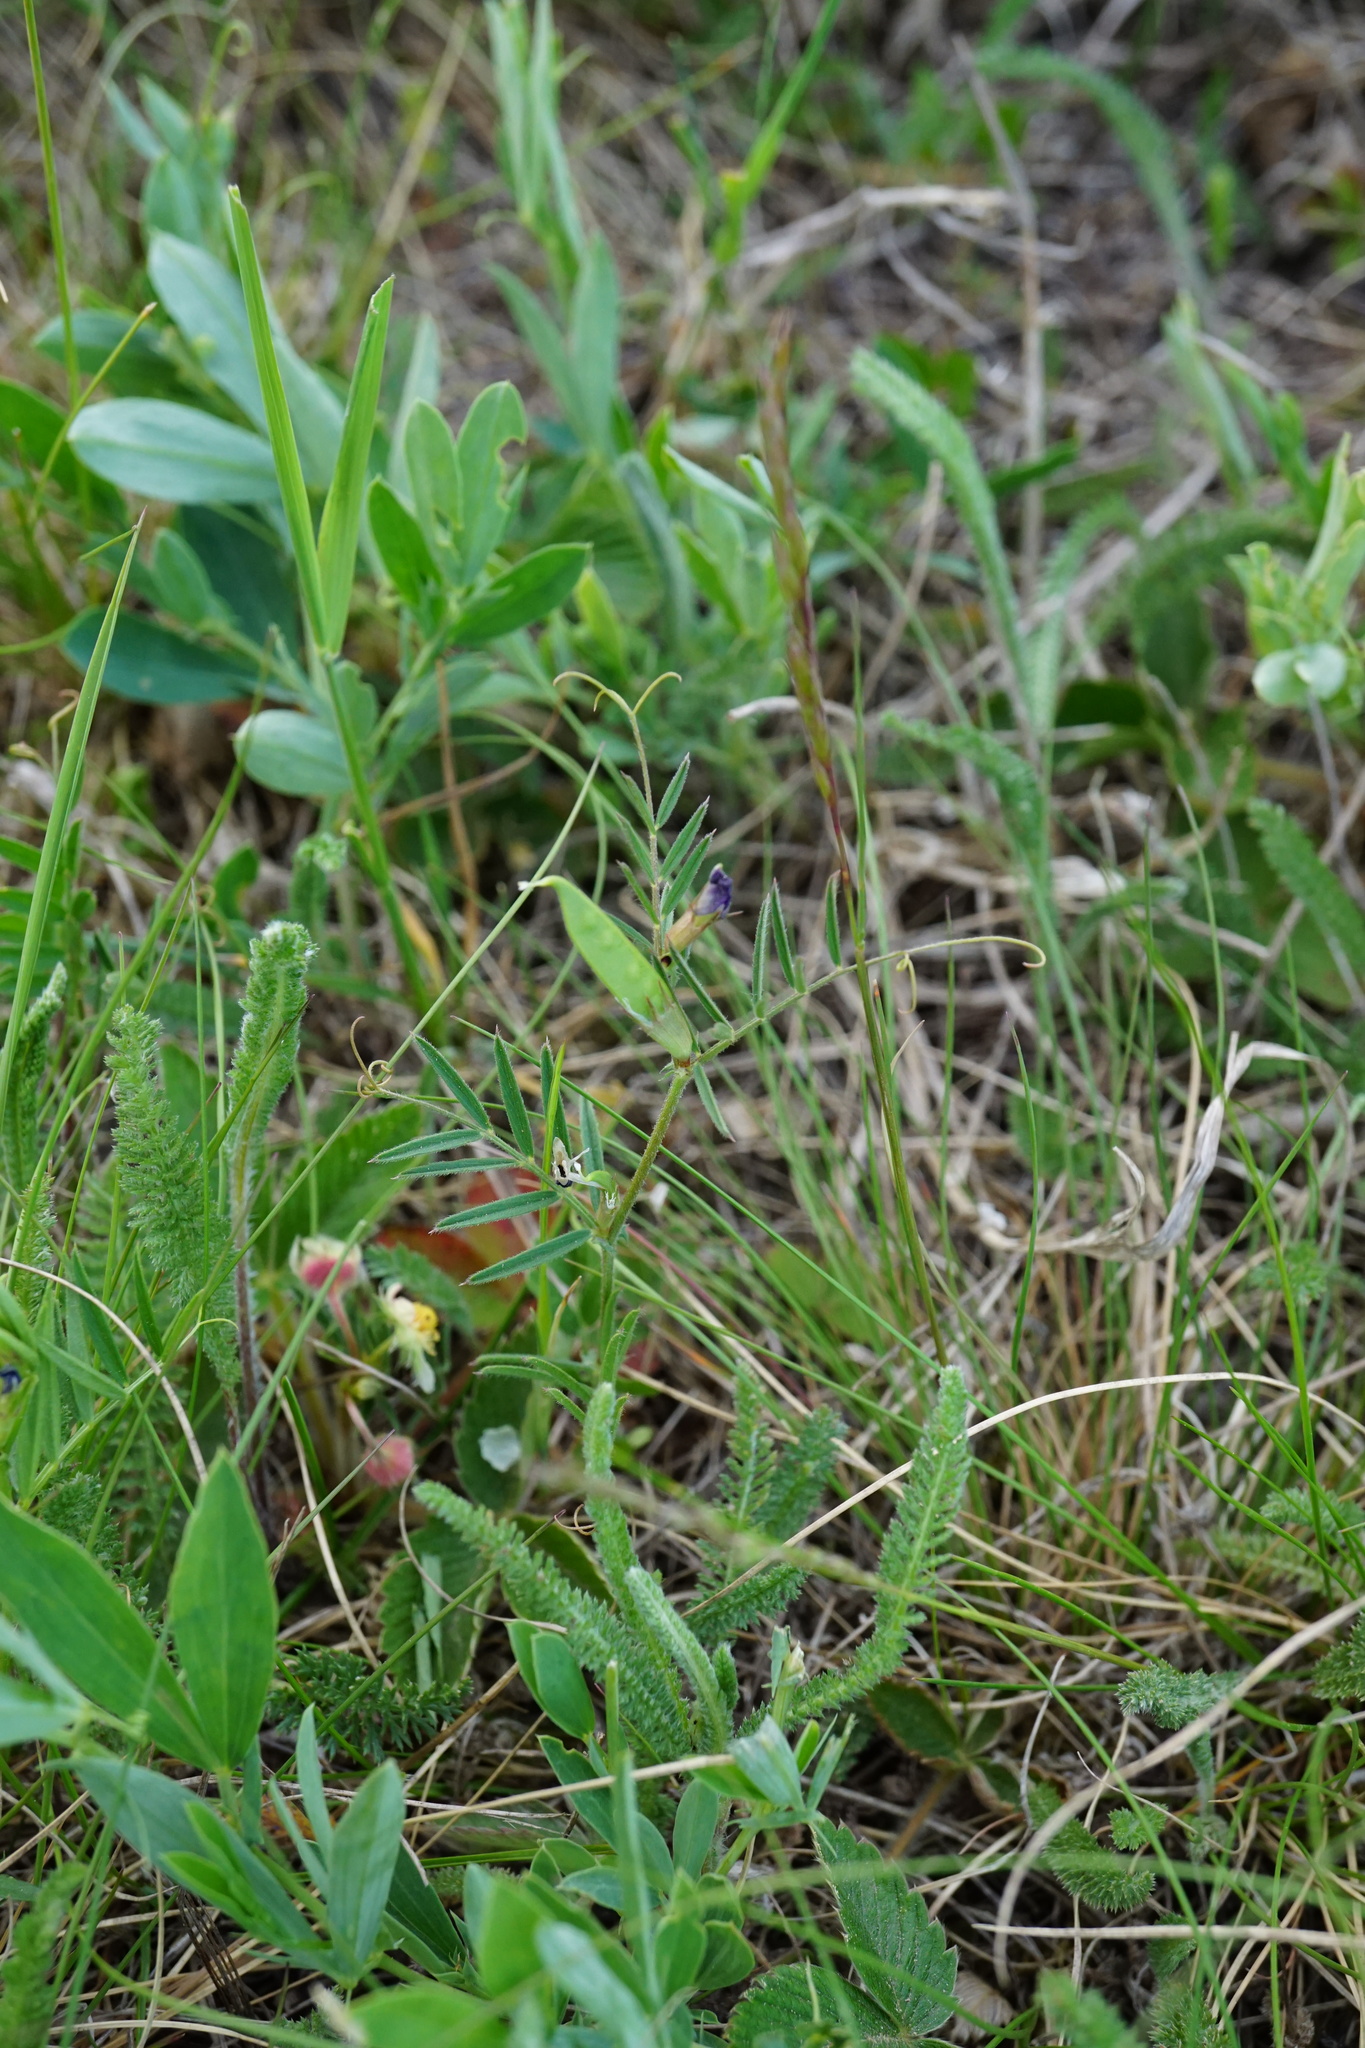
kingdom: Plantae
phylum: Tracheophyta
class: Magnoliopsida
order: Fabales
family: Fabaceae
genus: Vicia
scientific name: Vicia sativa
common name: Garden vetch
